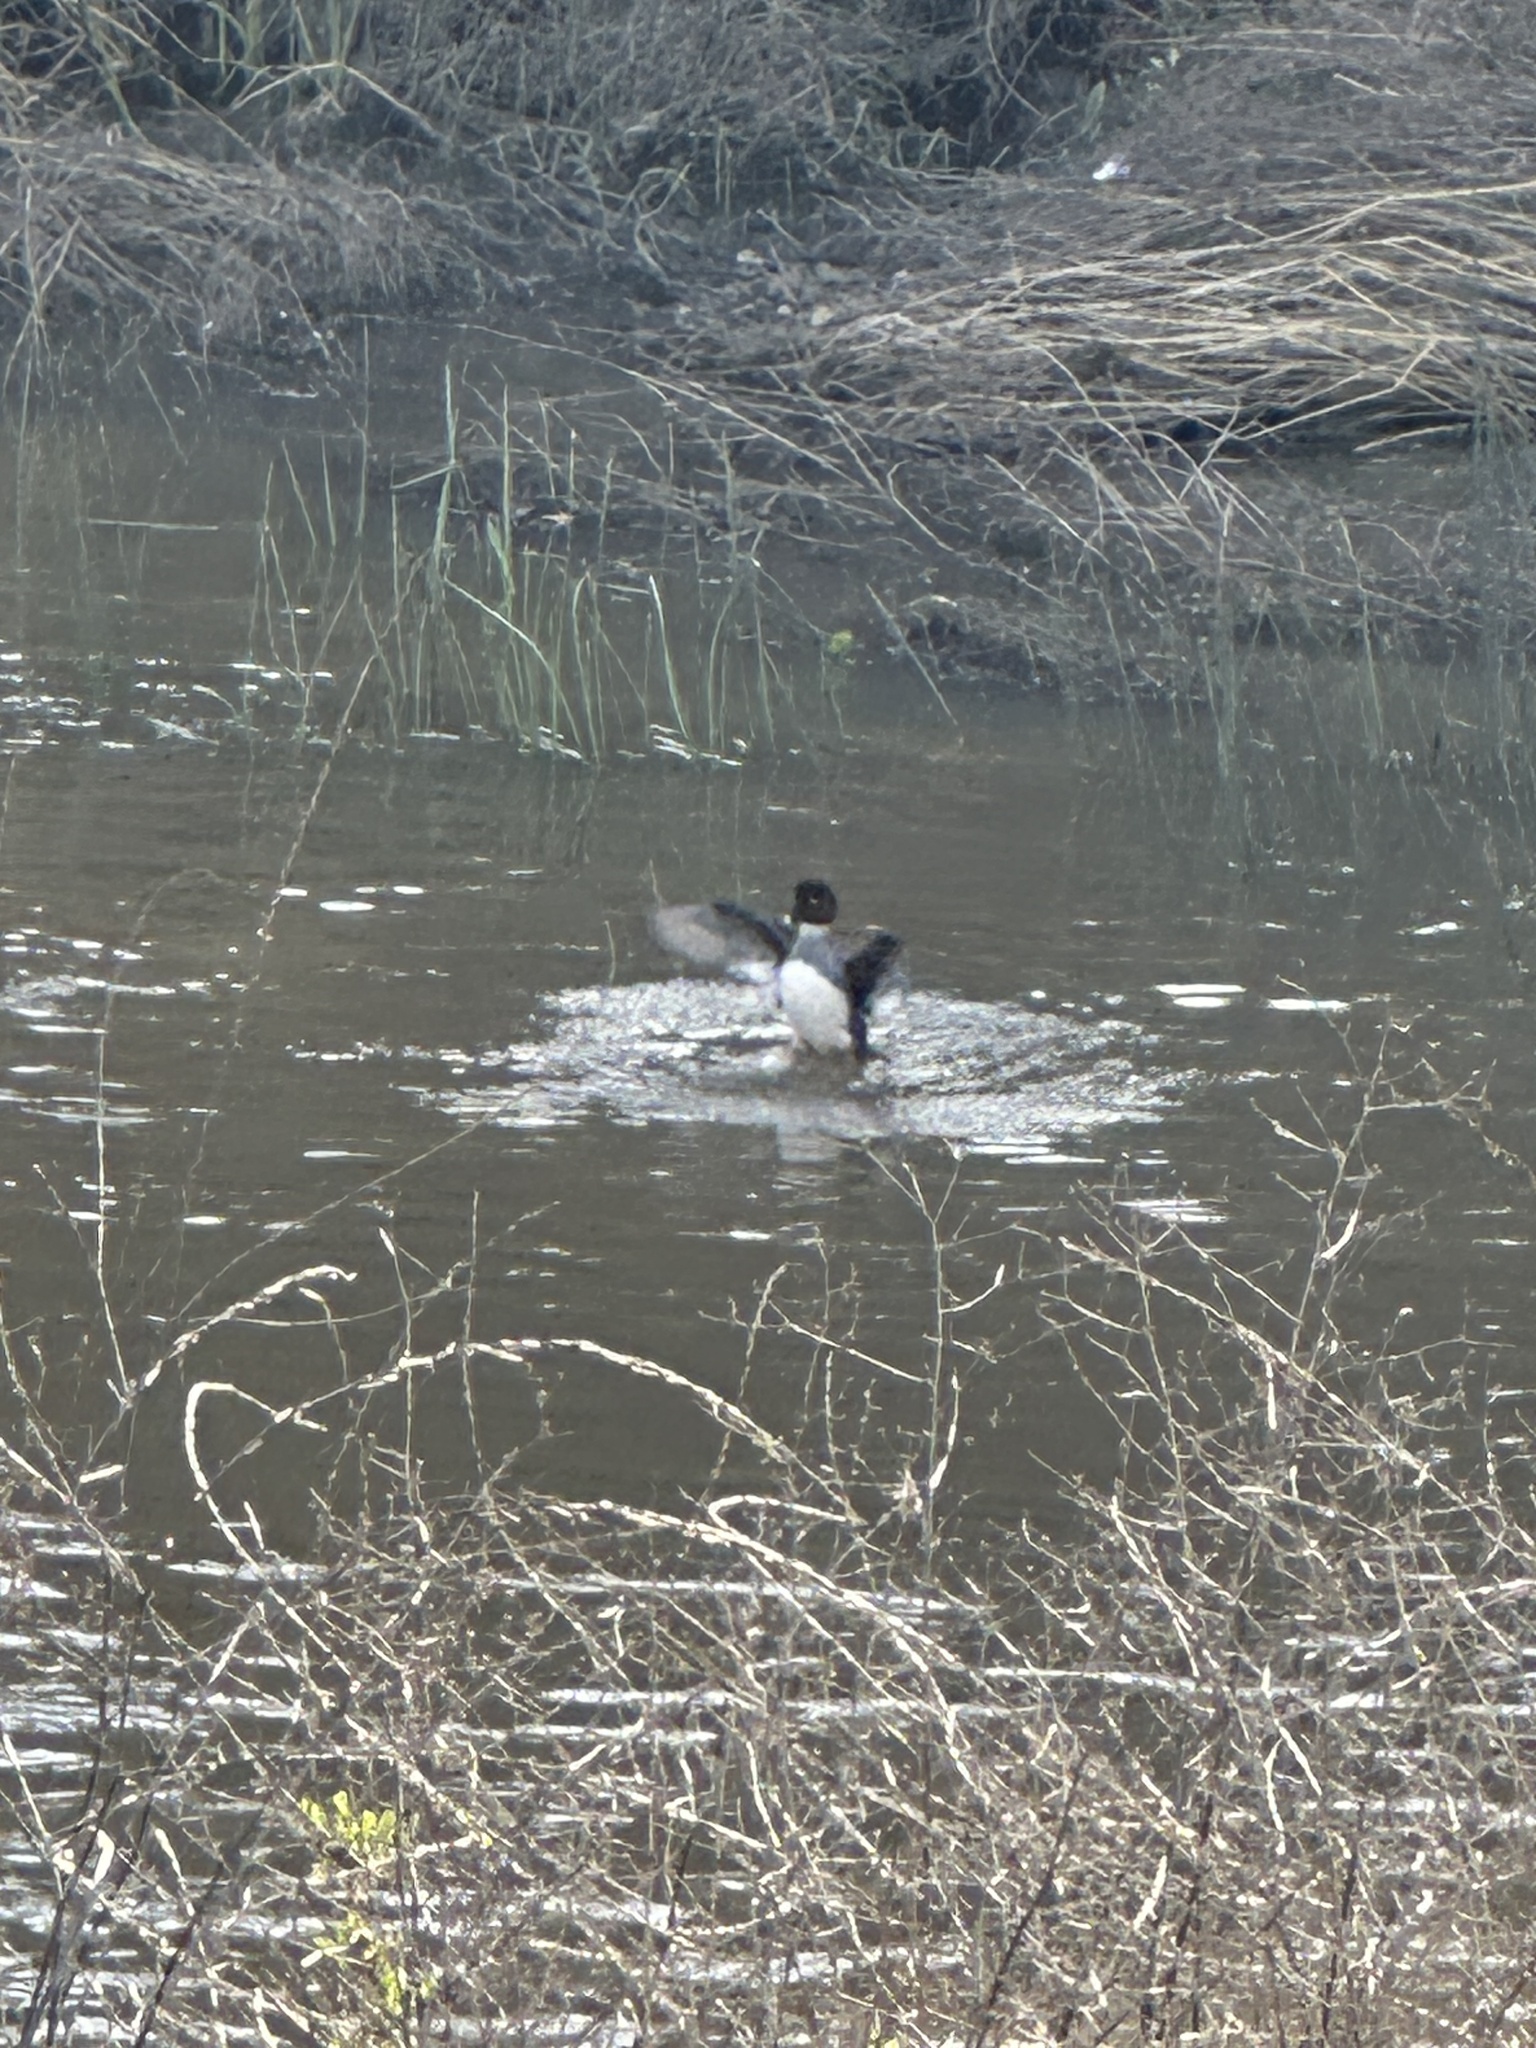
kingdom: Animalia
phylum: Chordata
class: Aves
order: Anseriformes
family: Anatidae
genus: Bucephala
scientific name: Bucephala clangula
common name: Common goldeneye
